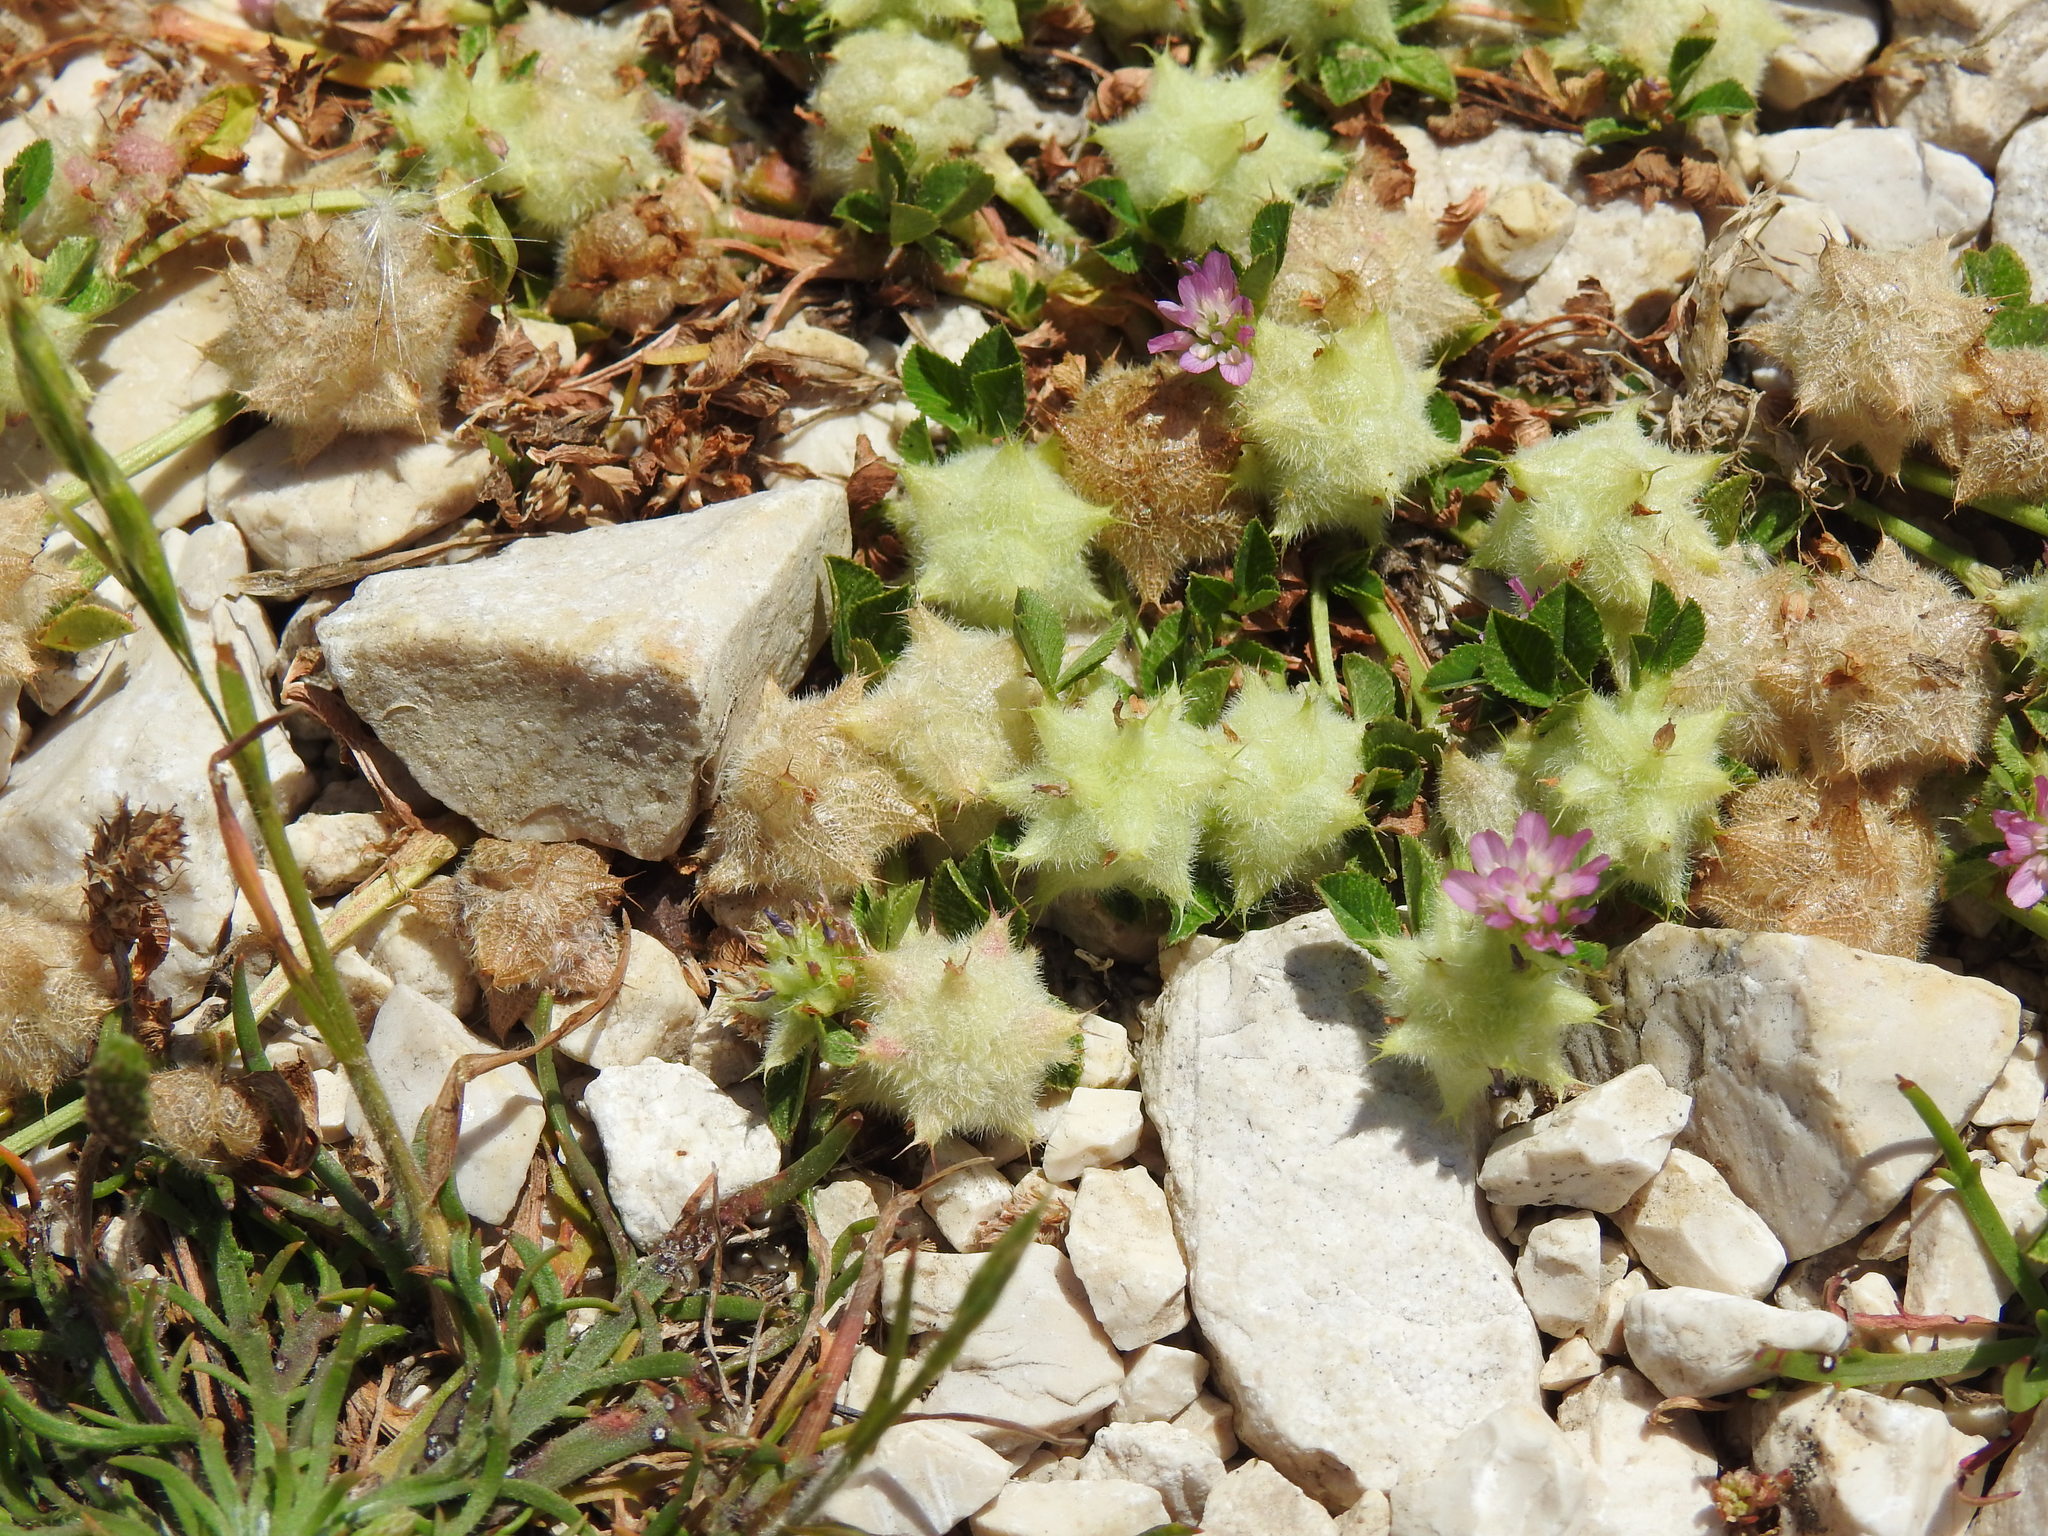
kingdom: Plantae
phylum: Tracheophyta
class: Magnoliopsida
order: Fabales
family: Fabaceae
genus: Trifolium
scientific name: Trifolium resupinatum
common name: Reversed clover
